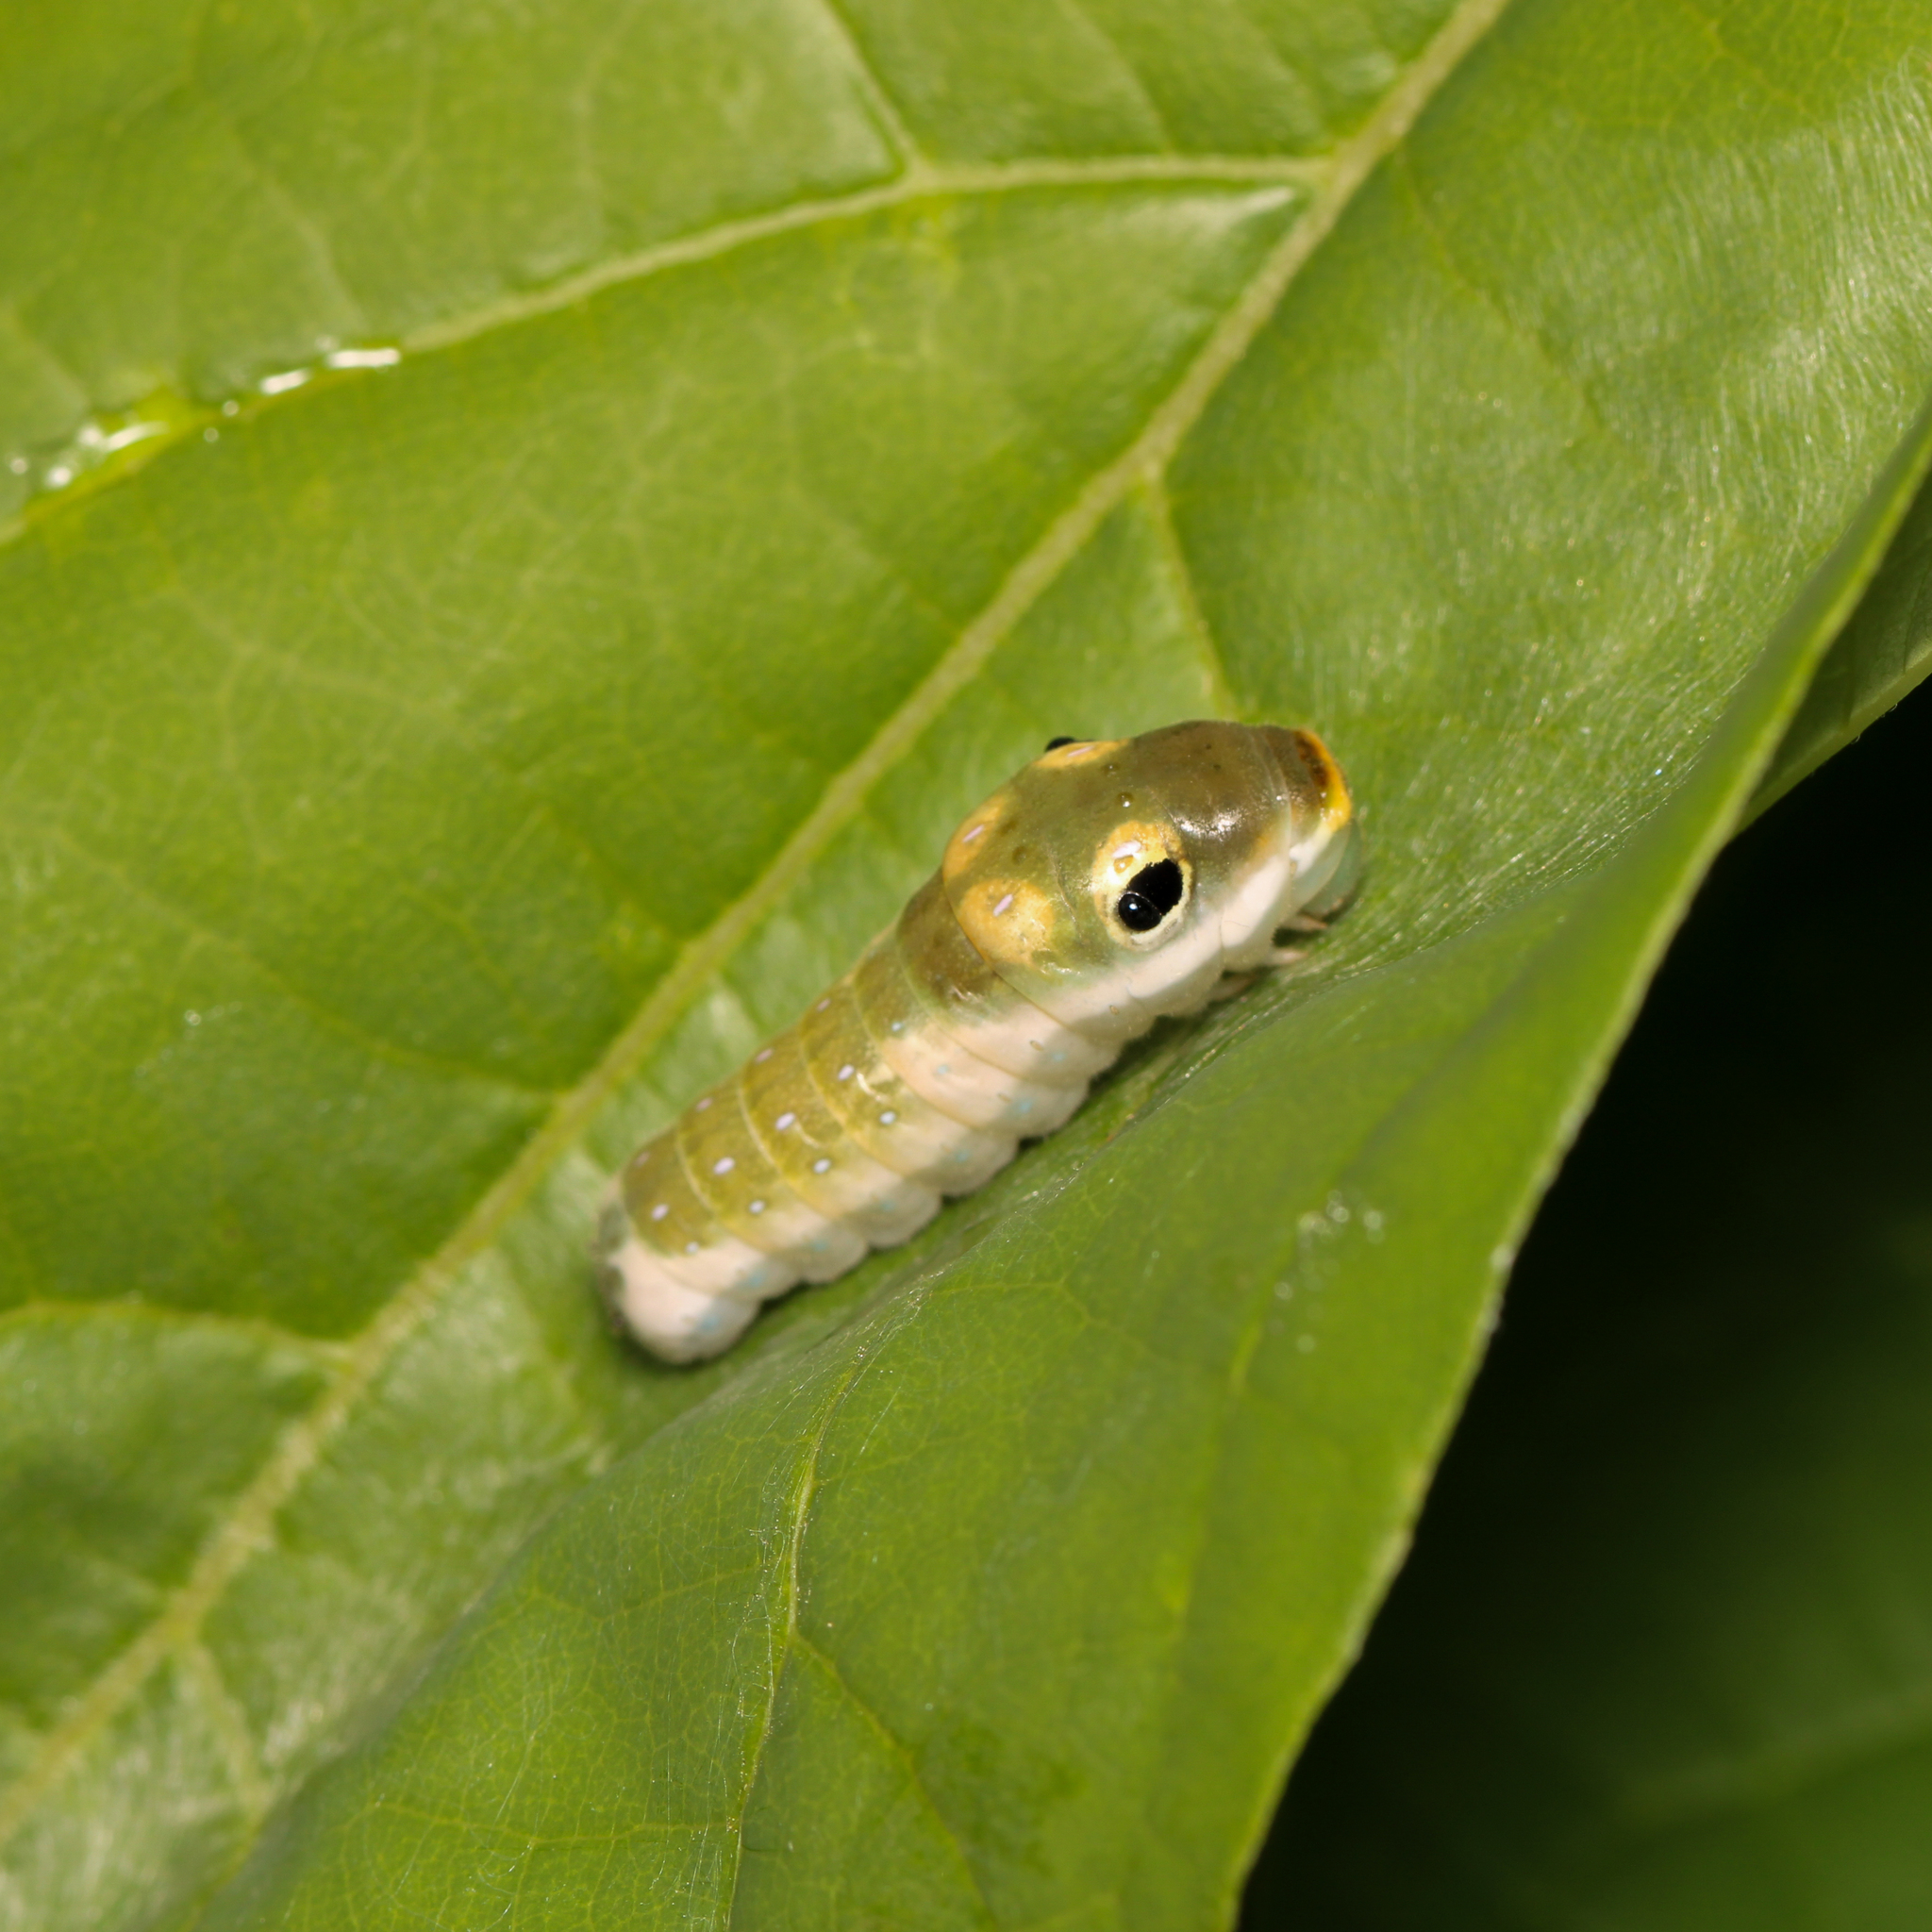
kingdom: Animalia
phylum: Arthropoda
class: Insecta
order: Lepidoptera
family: Papilionidae
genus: Papilio
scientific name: Papilio troilus
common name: Spicebush swallowtail
